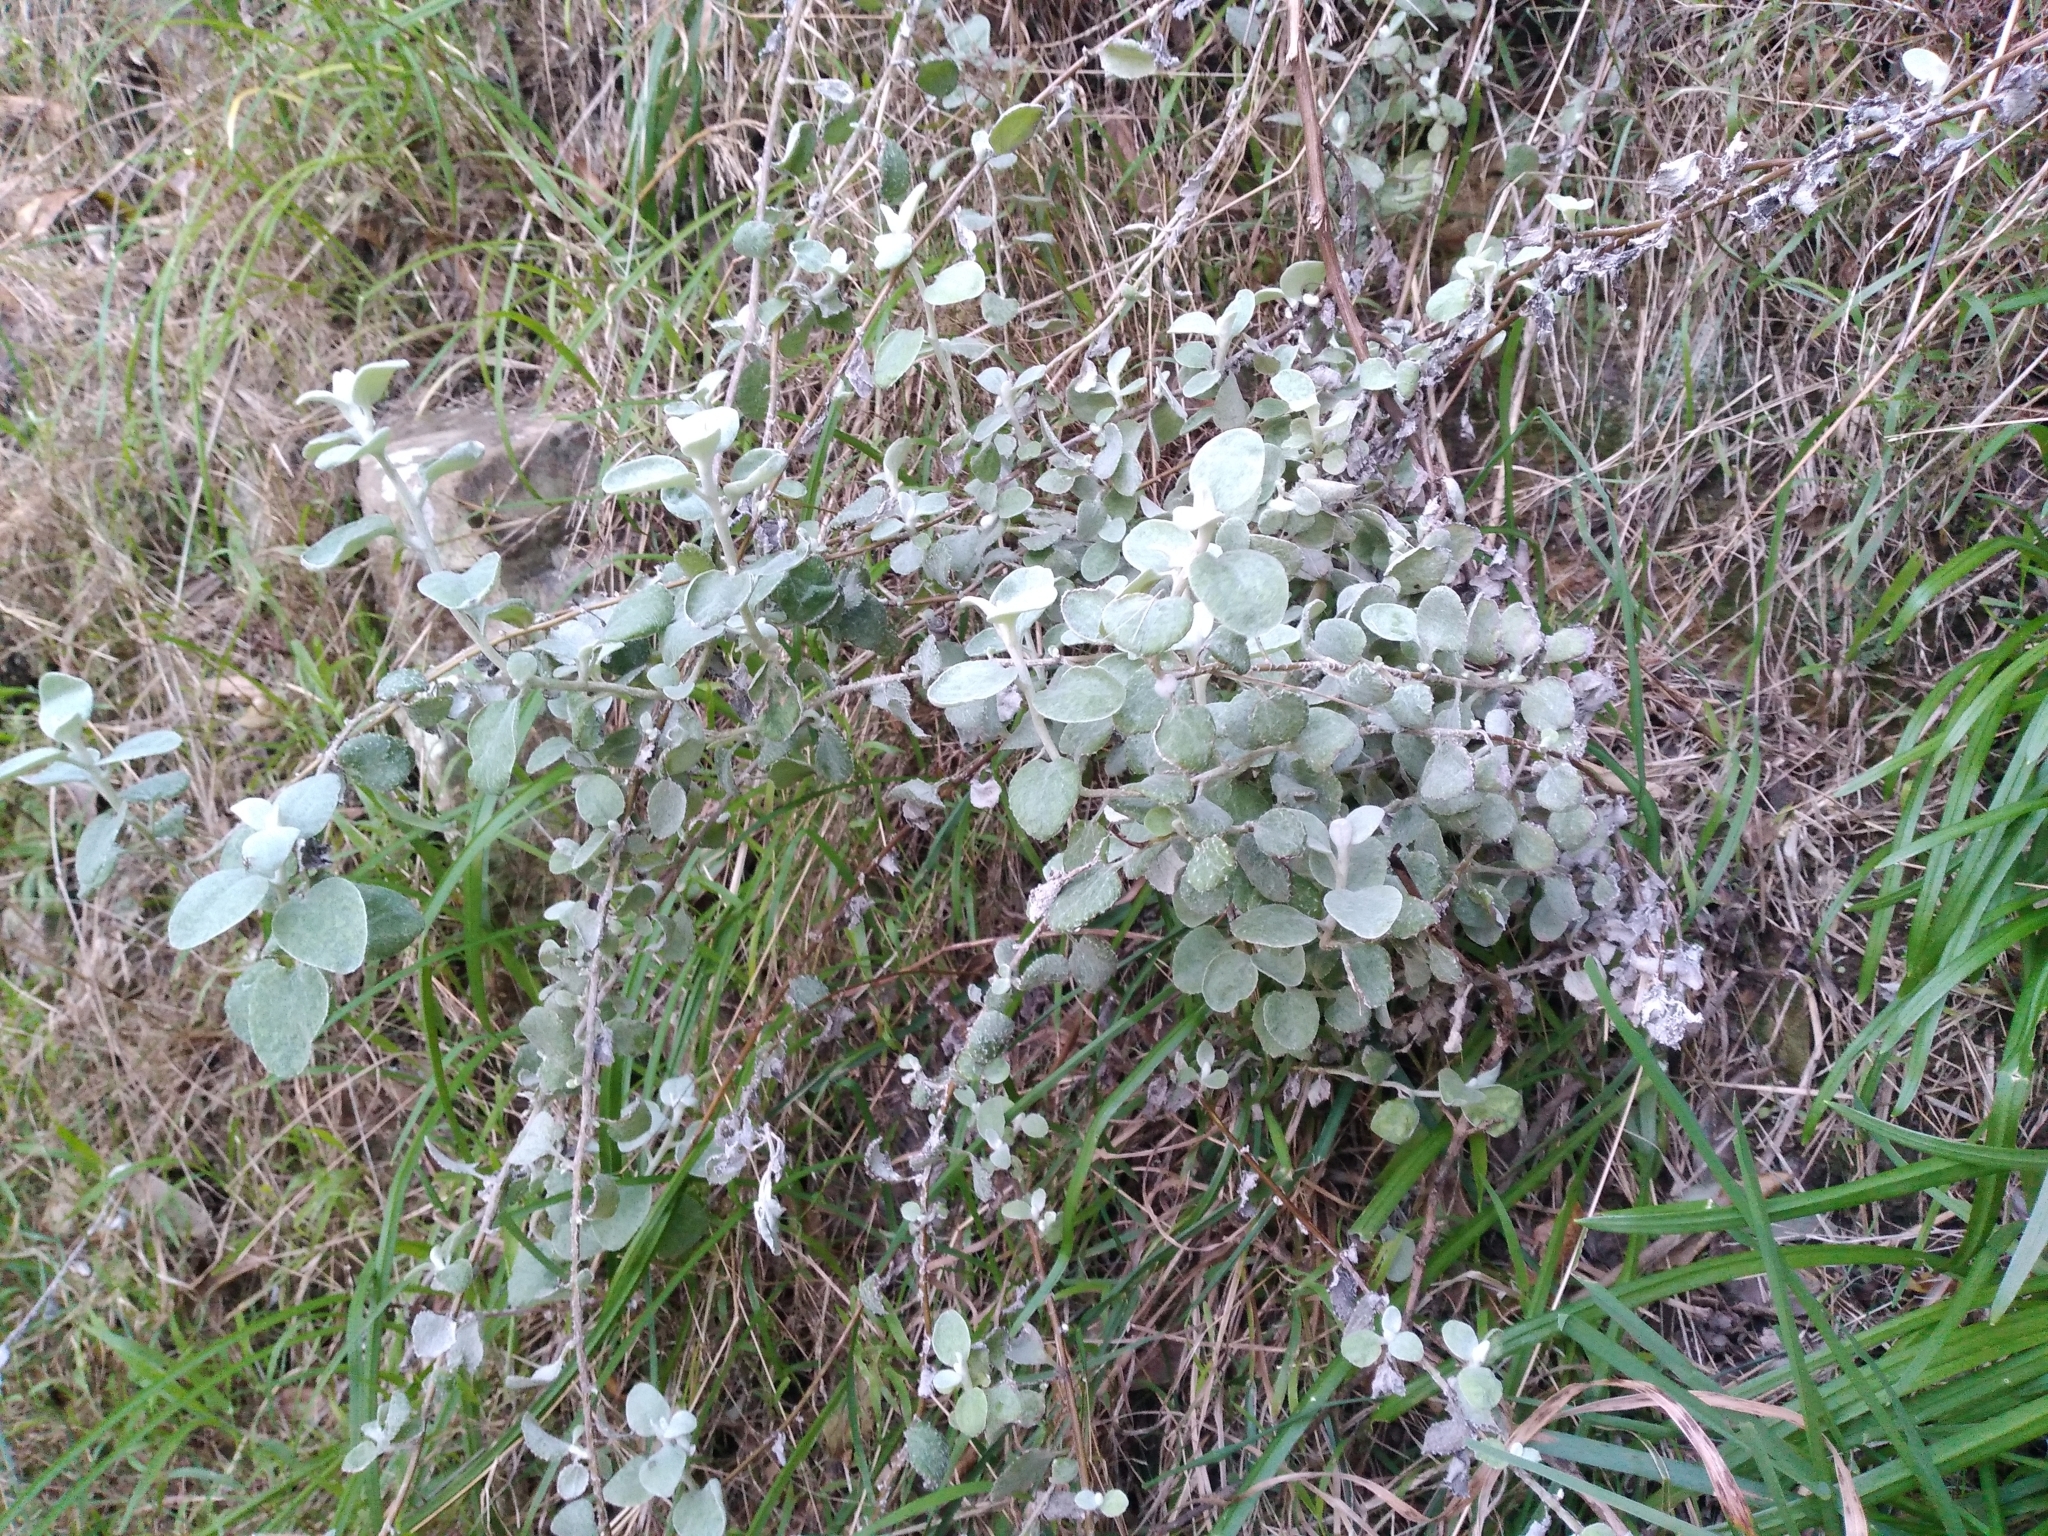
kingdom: Plantae
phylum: Tracheophyta
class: Magnoliopsida
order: Asterales
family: Asteraceae
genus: Helichrysum
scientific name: Helichrysum petiolare
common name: Licorice-plant
